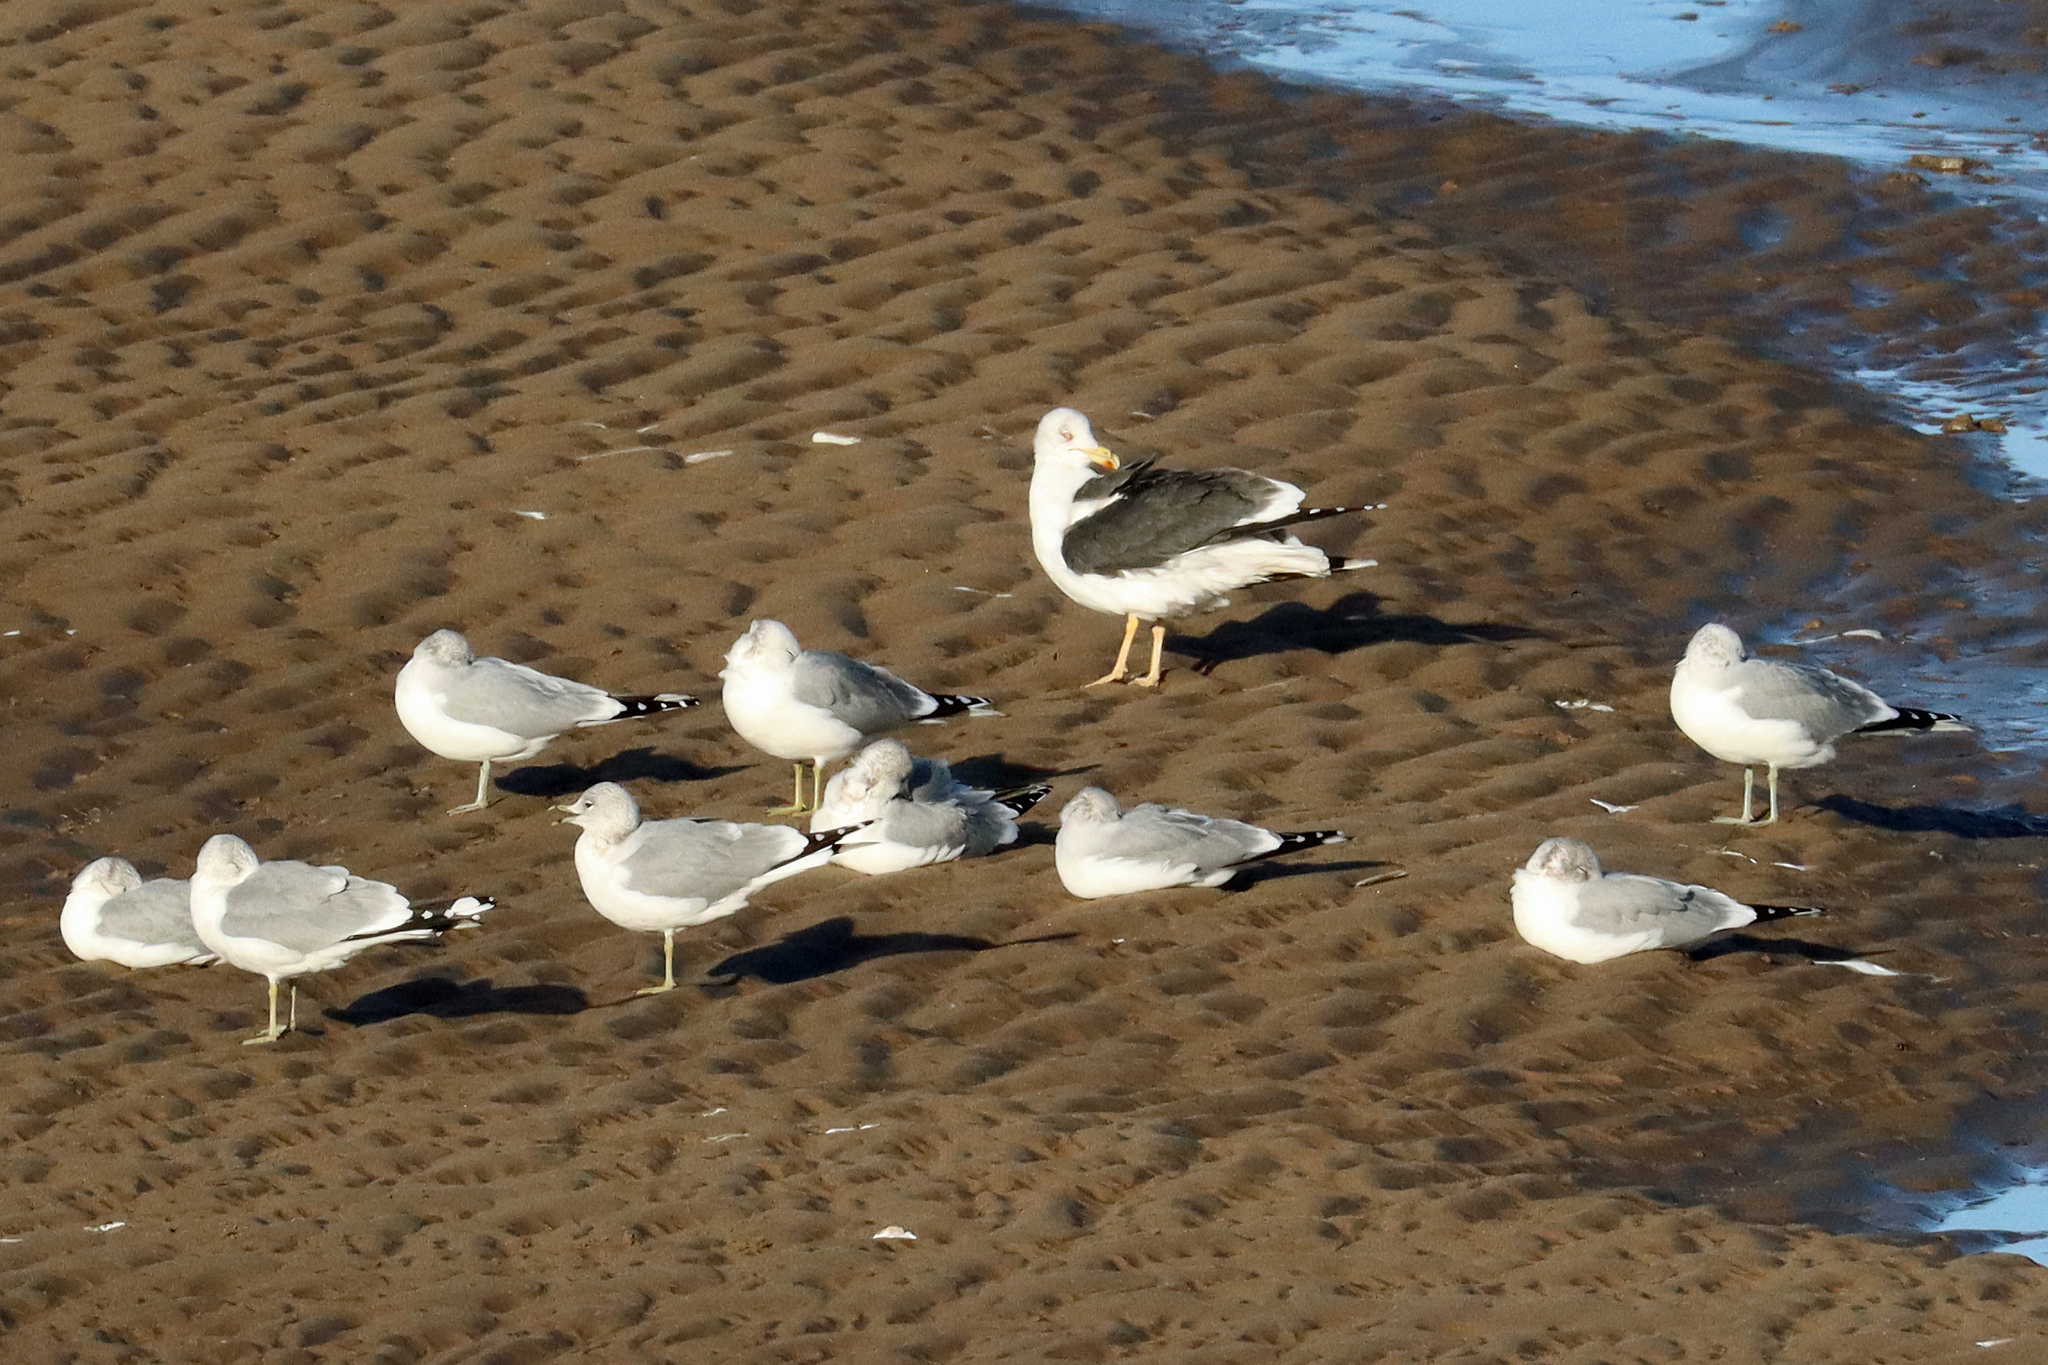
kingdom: Animalia
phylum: Chordata
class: Aves
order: Charadriiformes
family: Laridae
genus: Larus
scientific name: Larus fuscus
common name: Lesser black-backed gull
